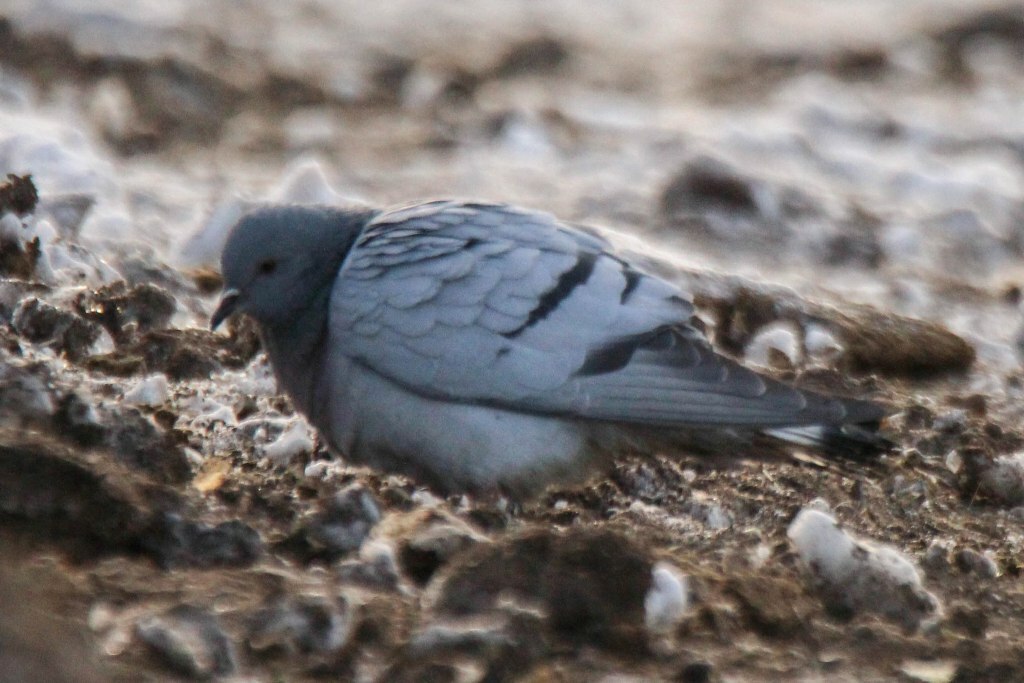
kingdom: Animalia
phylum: Chordata
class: Aves
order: Columbiformes
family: Columbidae
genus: Columba
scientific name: Columba rupestris
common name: Hill pigeon
